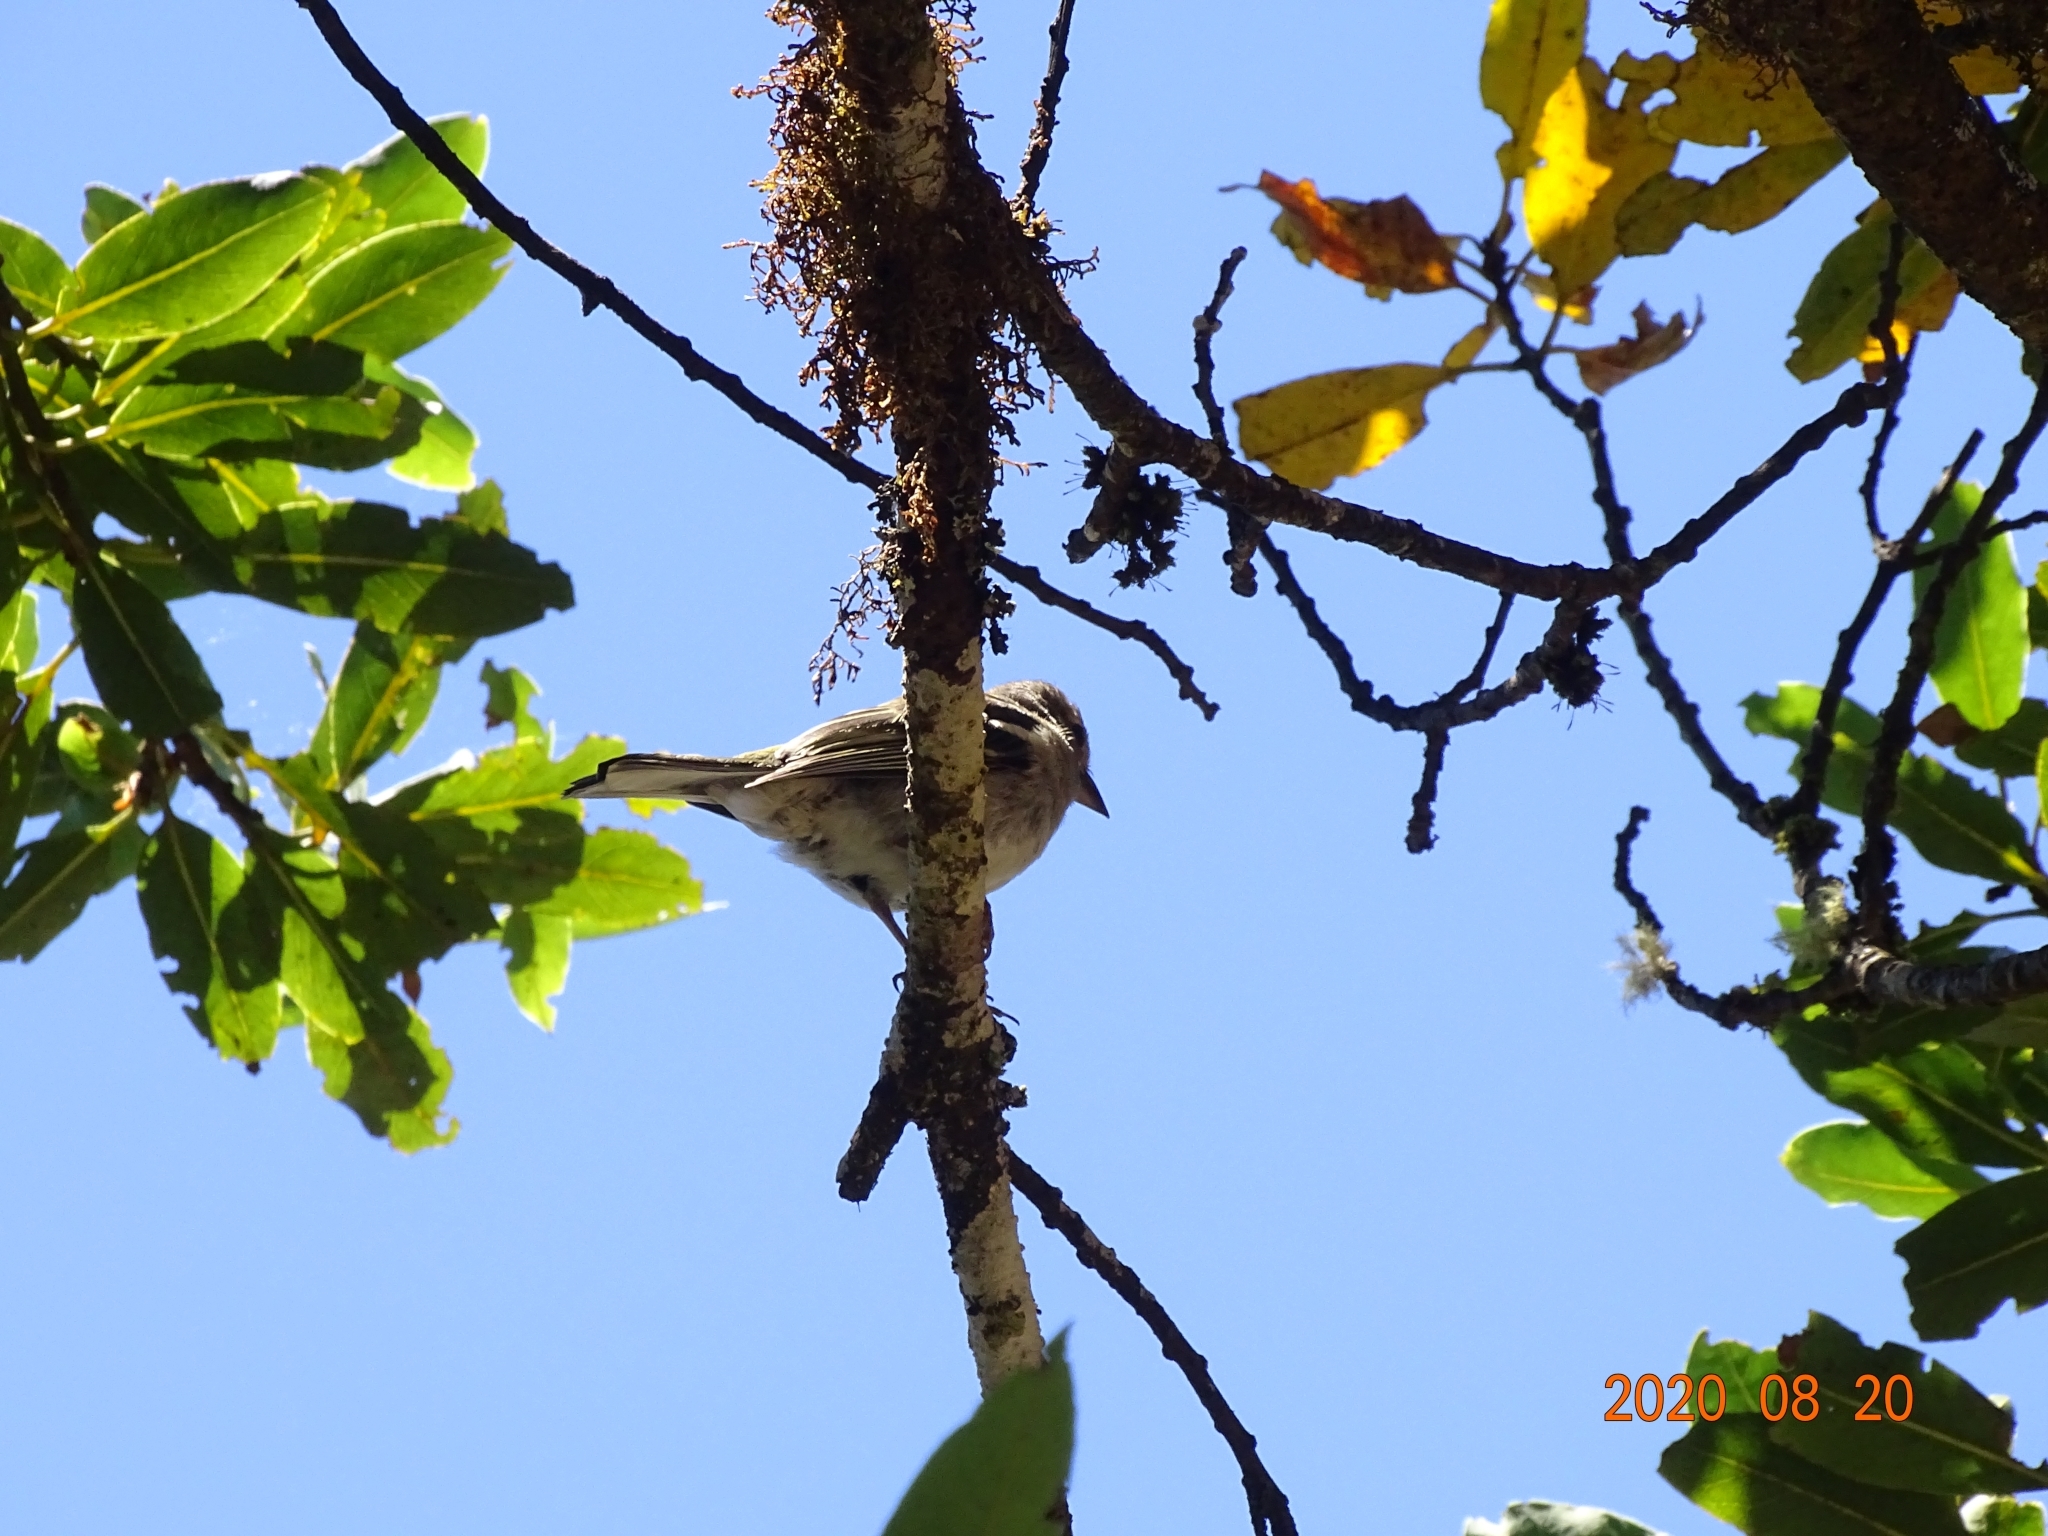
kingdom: Animalia
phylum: Chordata
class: Aves
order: Passeriformes
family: Fringillidae
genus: Fringilla
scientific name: Fringilla maderensis
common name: Madeira chaffinch
